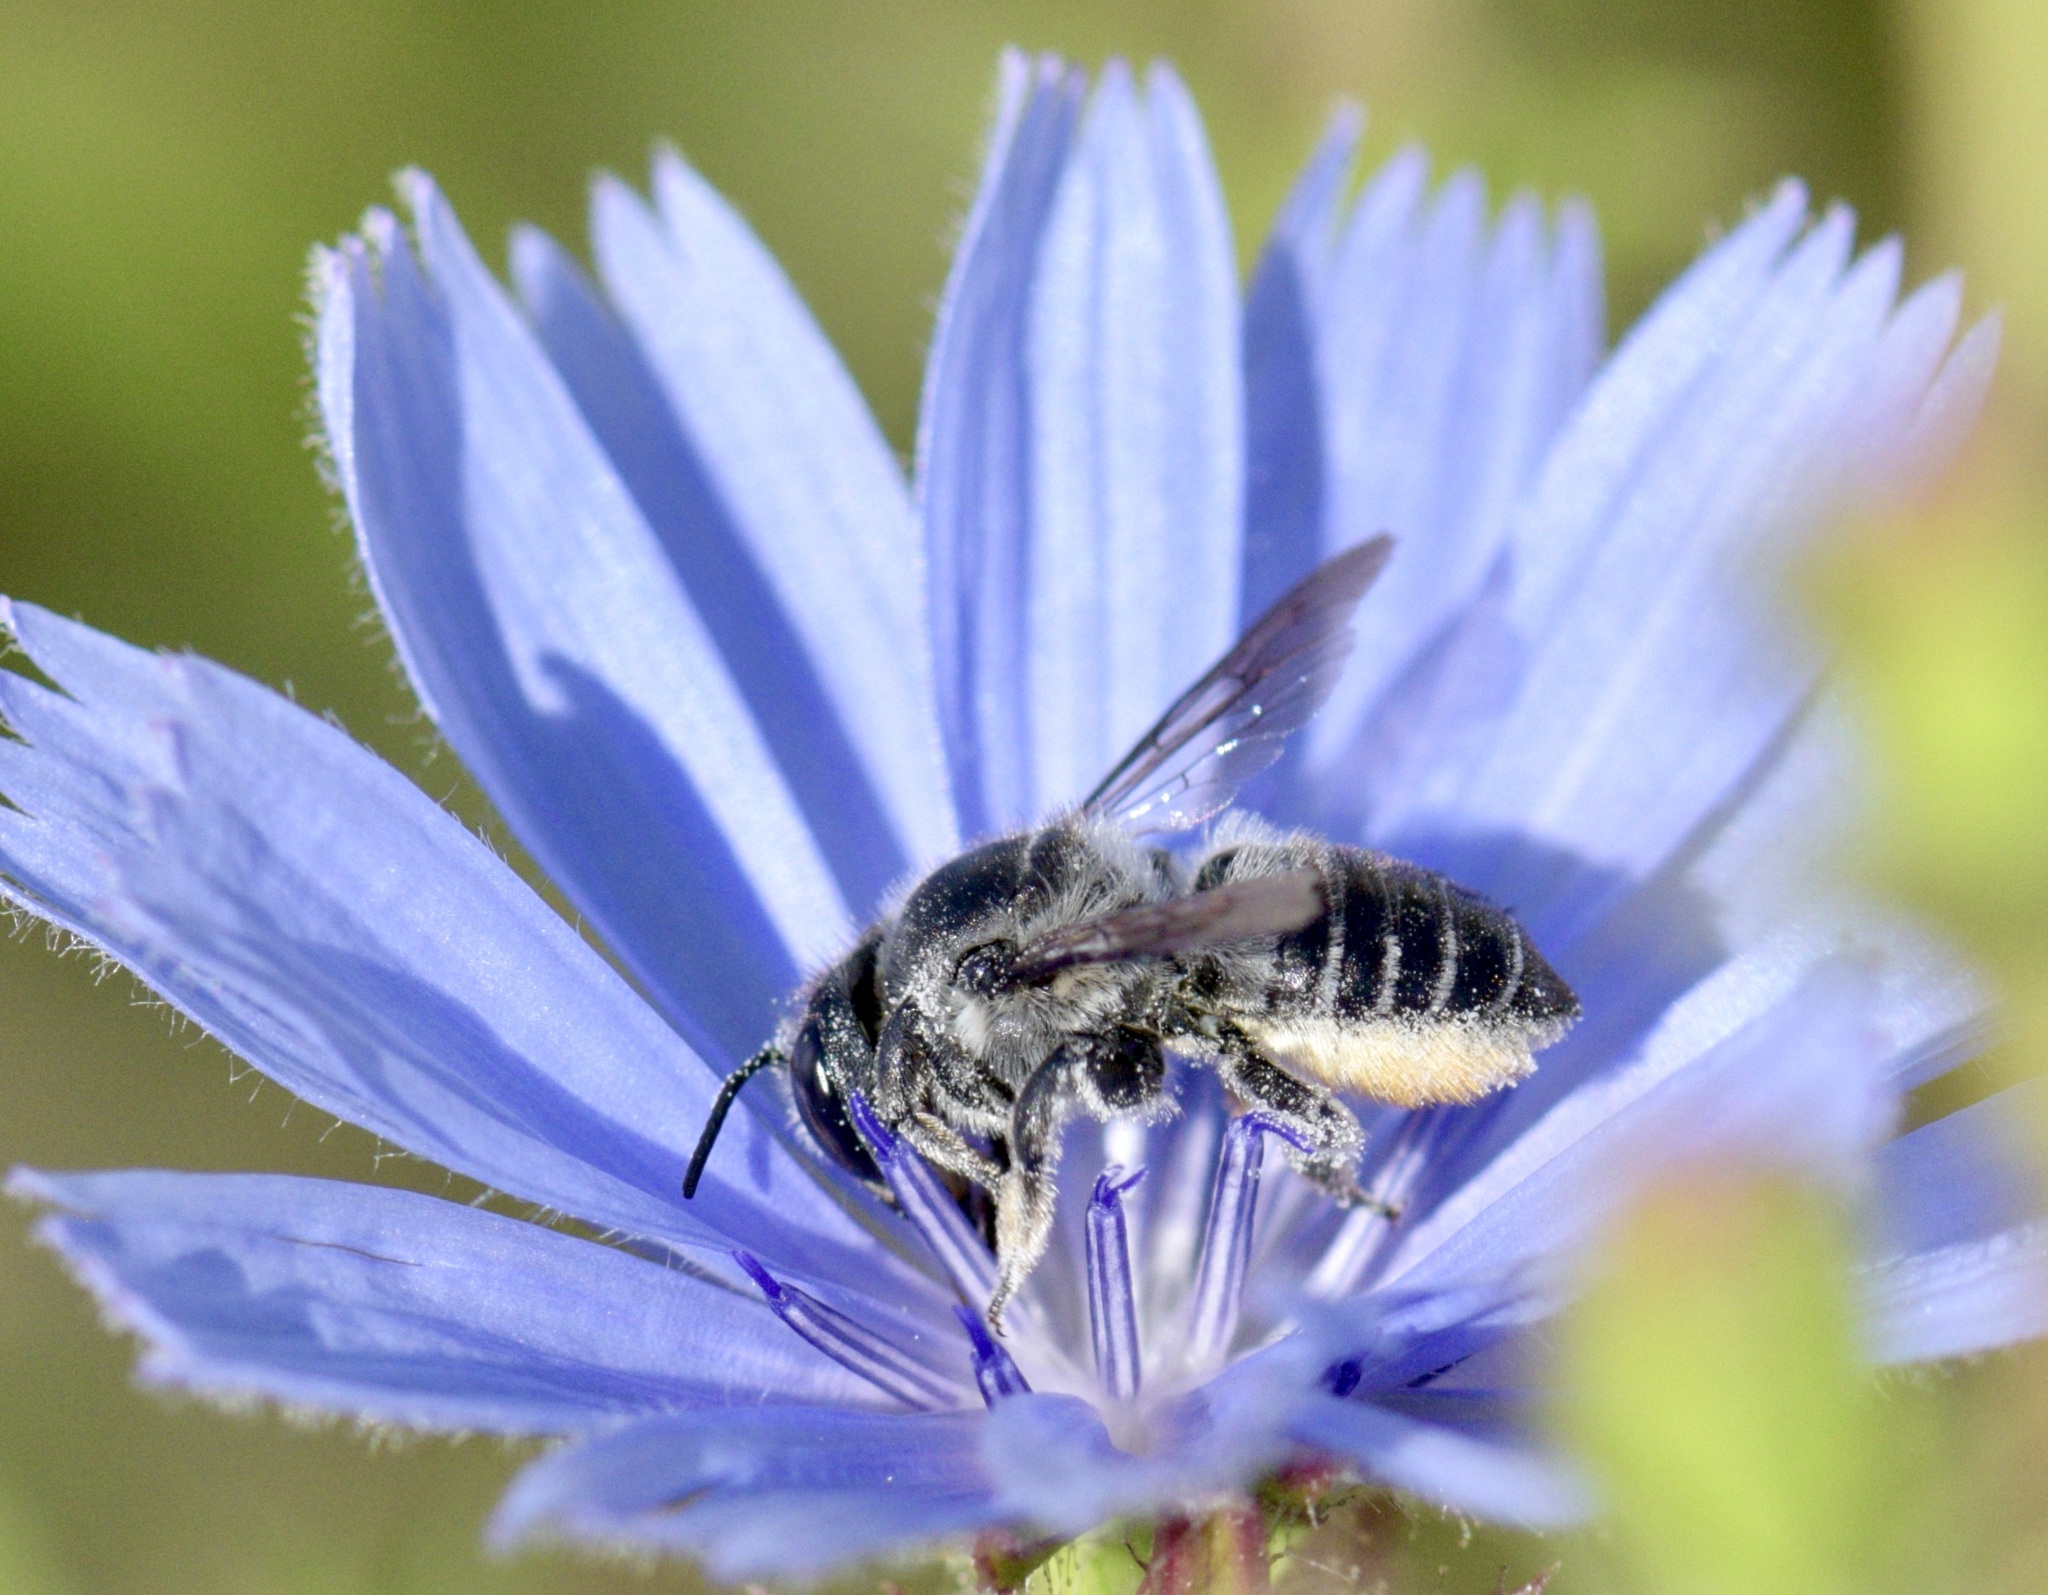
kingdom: Animalia
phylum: Arthropoda
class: Insecta
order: Hymenoptera
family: Megachilidae
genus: Megachile
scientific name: Megachile mendica
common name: Flat-tailed leafcutter
